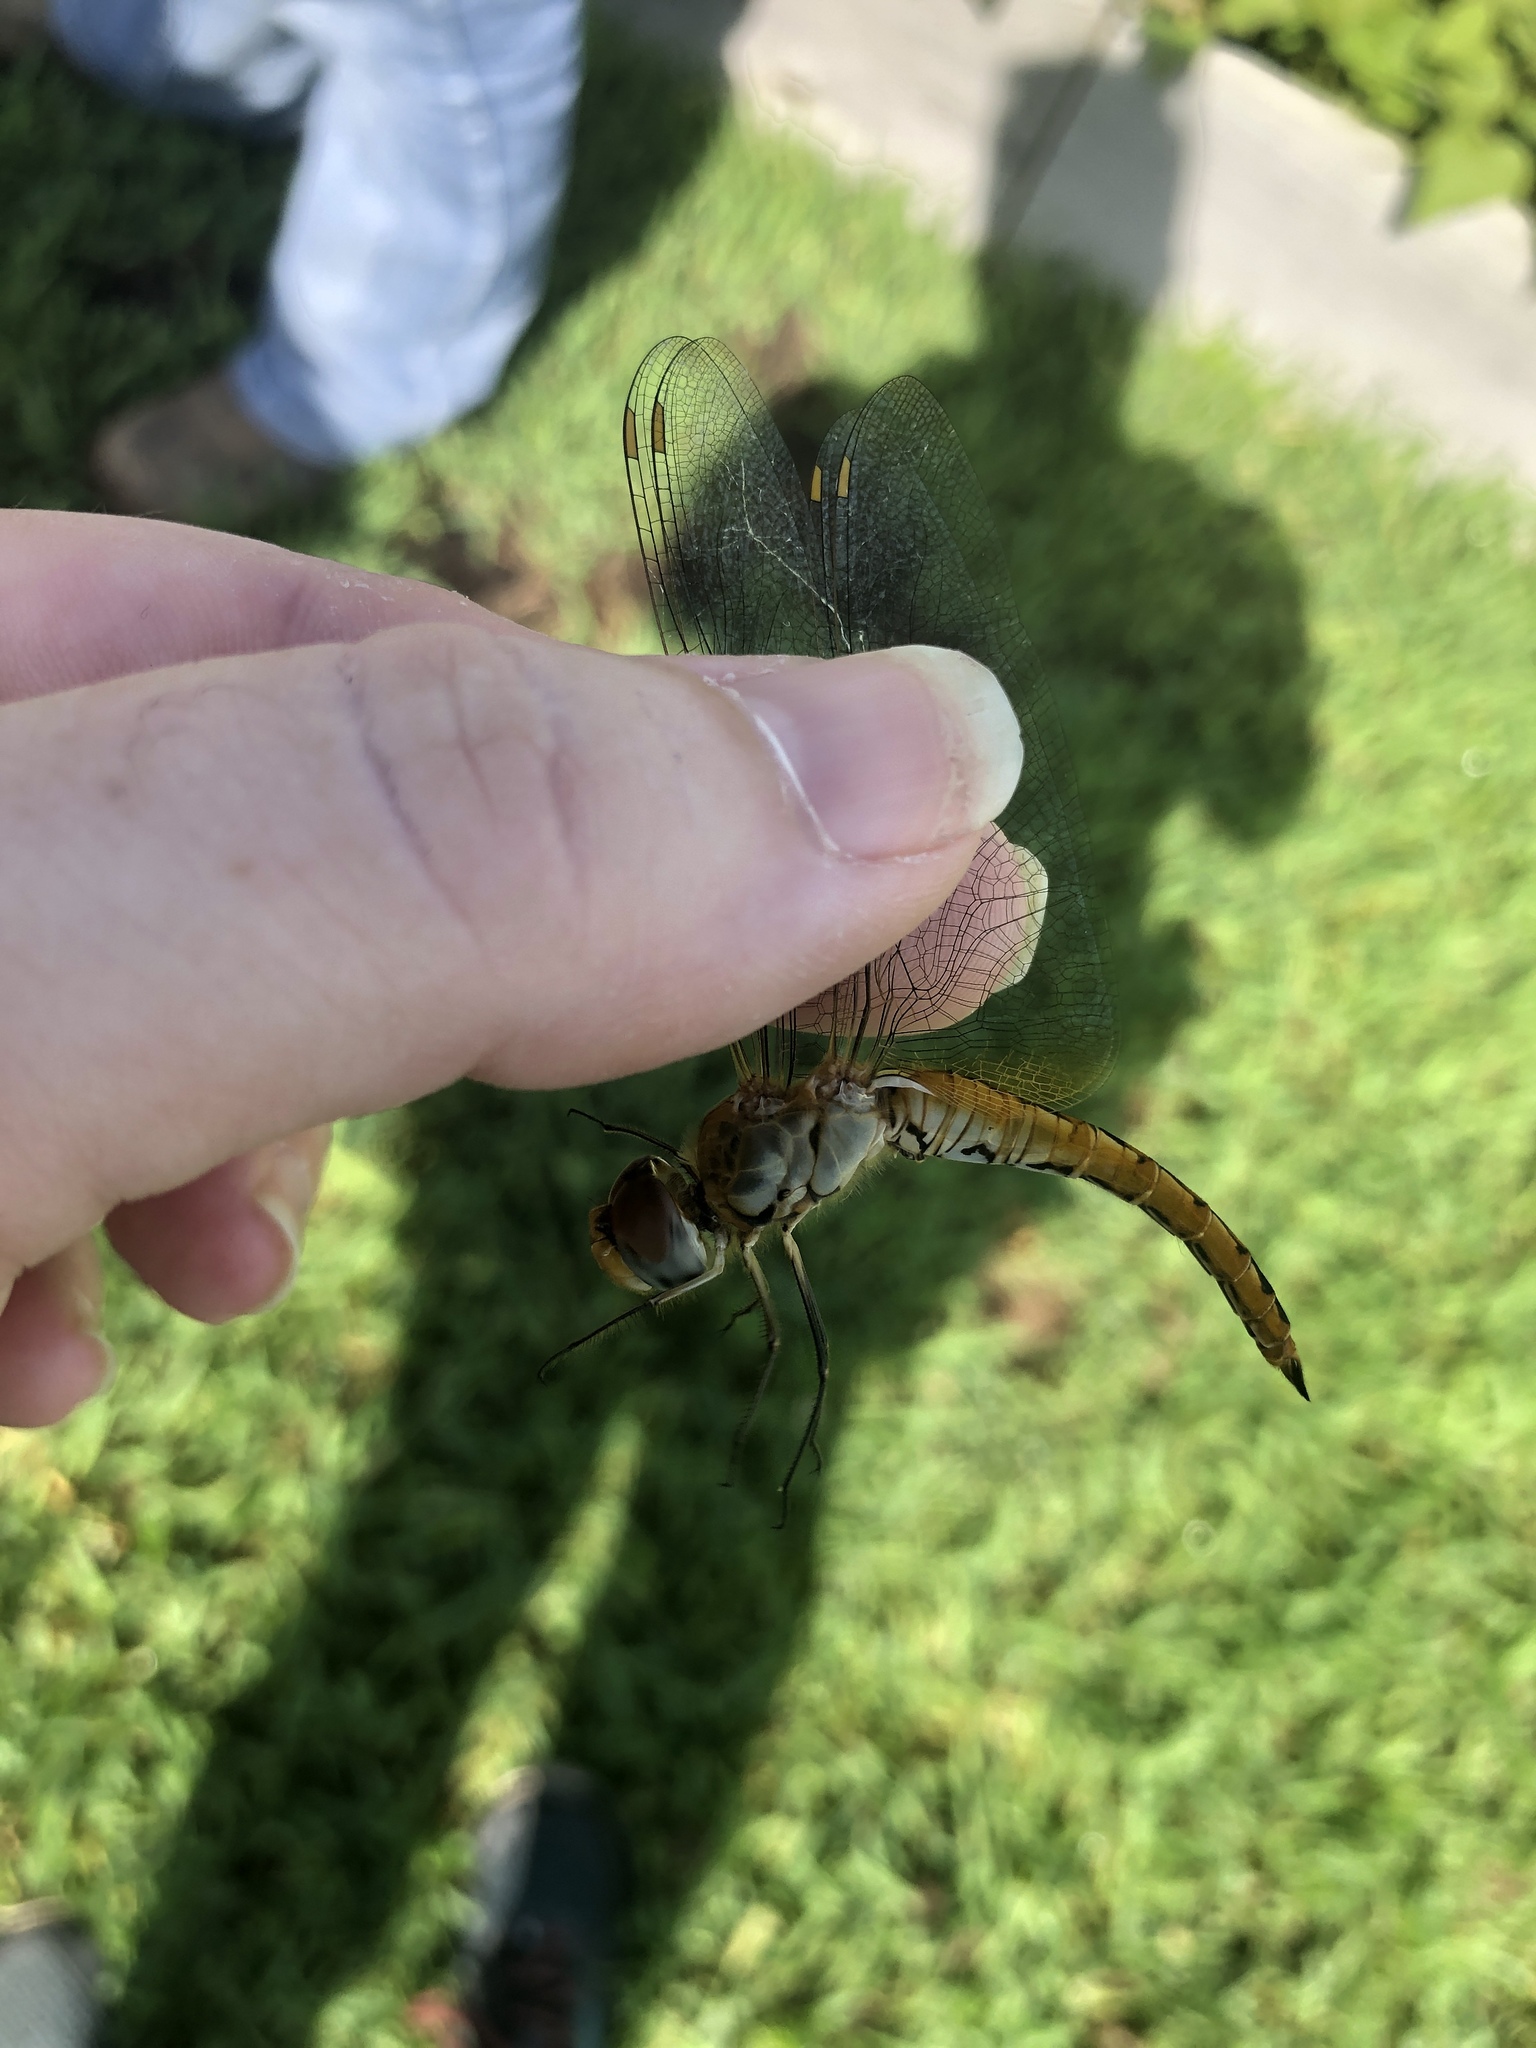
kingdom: Animalia
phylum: Arthropoda
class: Insecta
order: Odonata
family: Libellulidae
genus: Pantala
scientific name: Pantala flavescens
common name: Wandering glider
